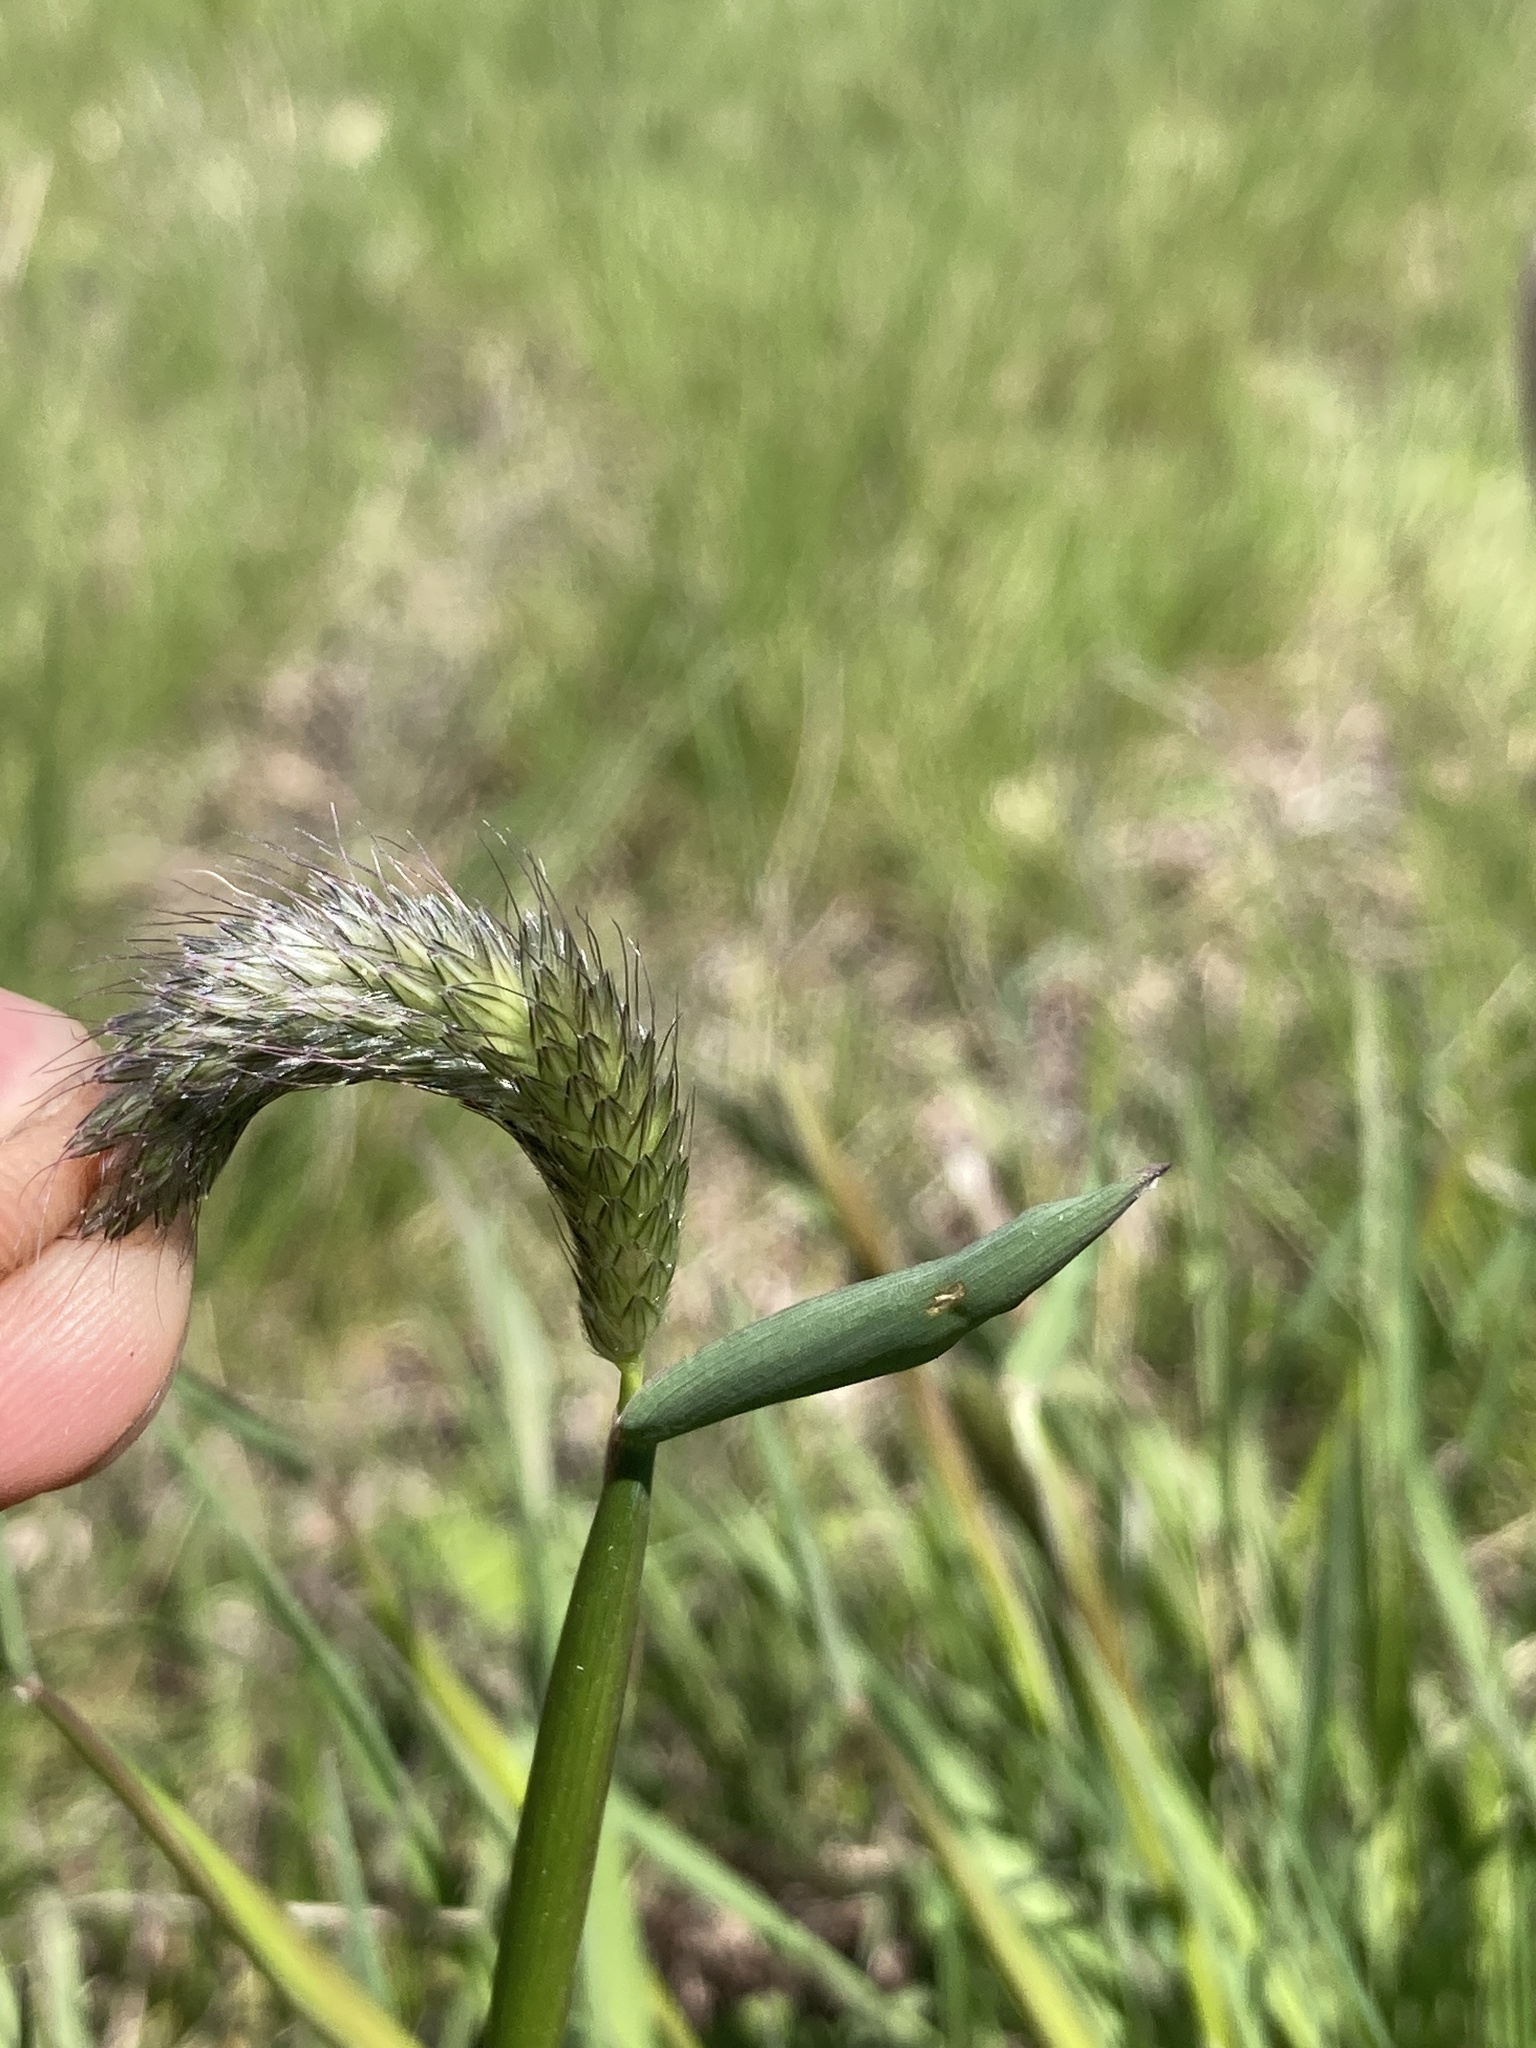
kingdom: Plantae
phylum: Tracheophyta
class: Liliopsida
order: Poales
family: Poaceae
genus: Alopecurus
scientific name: Alopecurus pratensis
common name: Meadow foxtail
